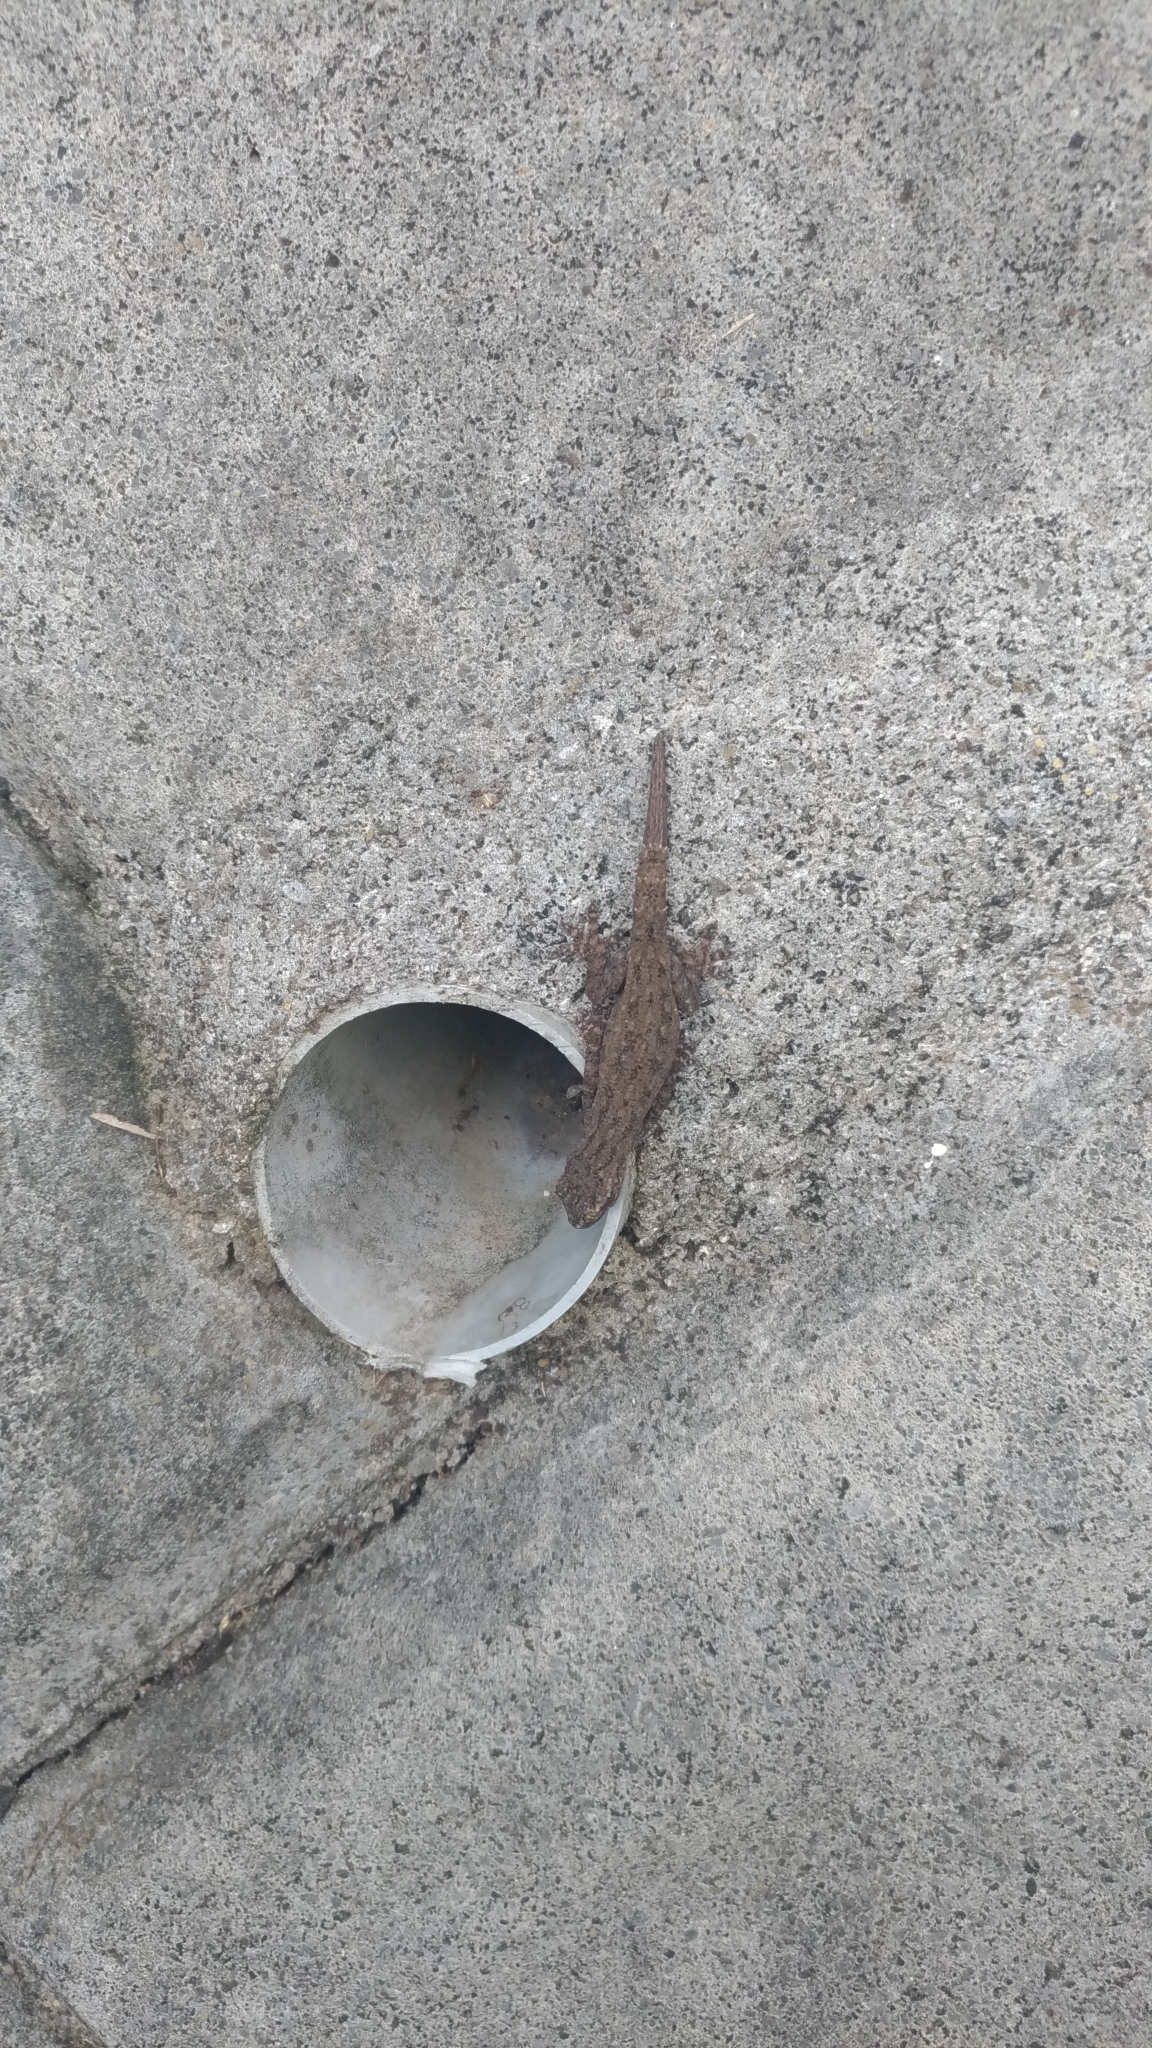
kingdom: Animalia
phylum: Chordata
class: Squamata
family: Gekkonidae
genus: Hemidactylus
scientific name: Hemidactylus frenatus
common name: Common house gecko
